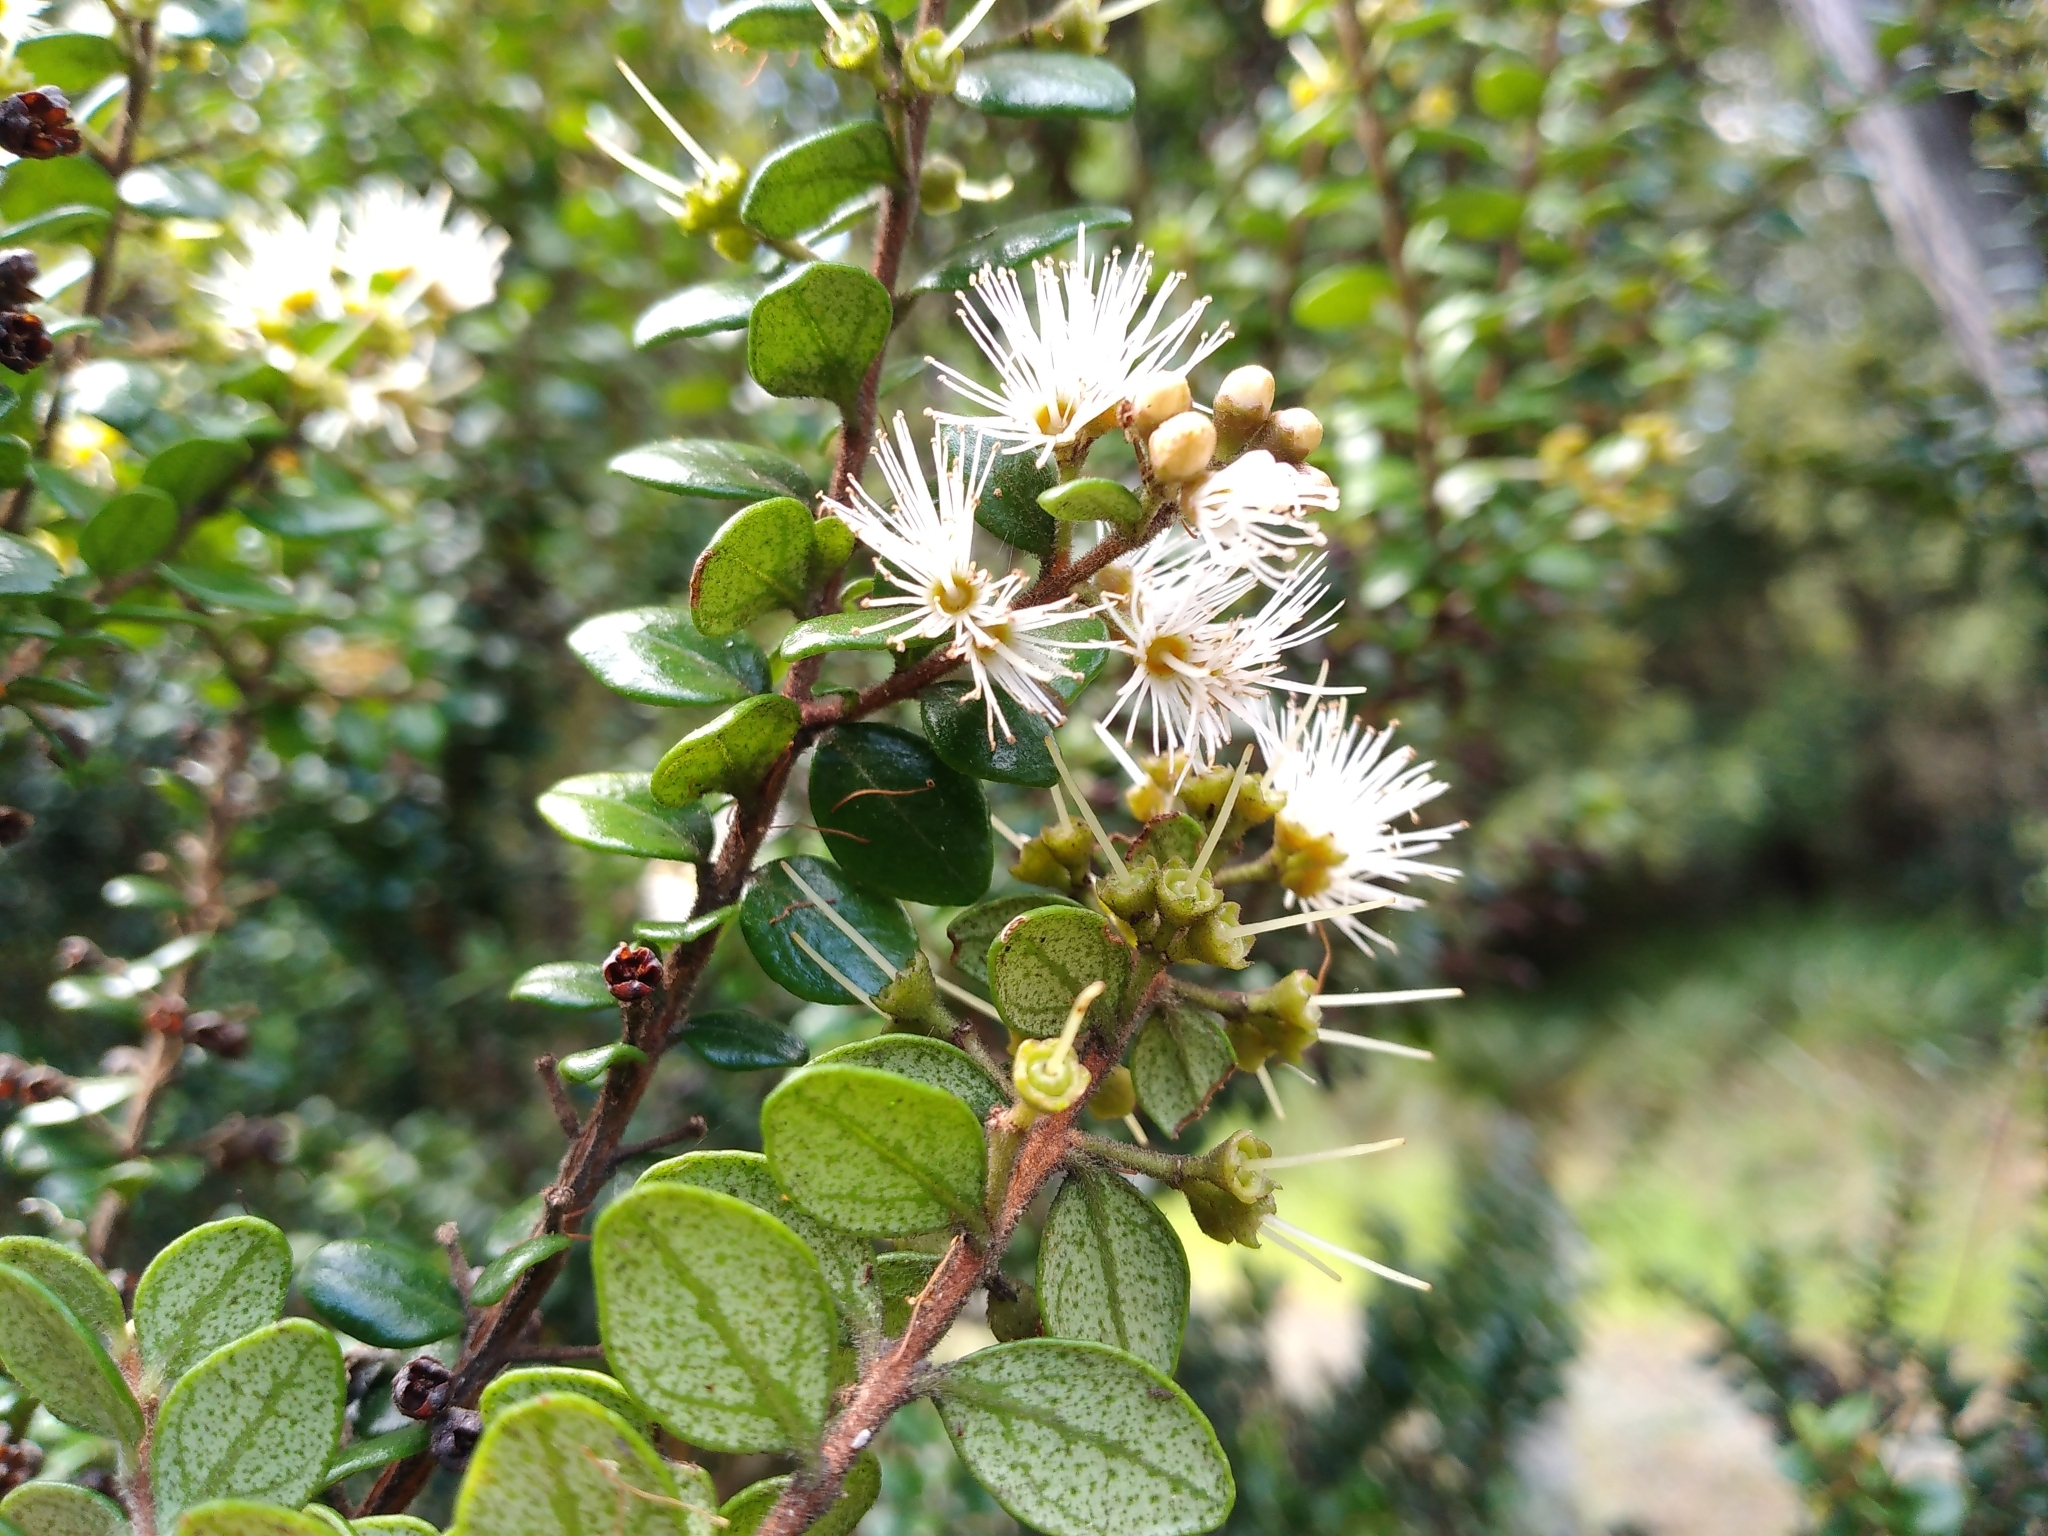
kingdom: Plantae
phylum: Tracheophyta
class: Magnoliopsida
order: Myrtales
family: Myrtaceae
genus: Metrosideros
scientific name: Metrosideros perforata
